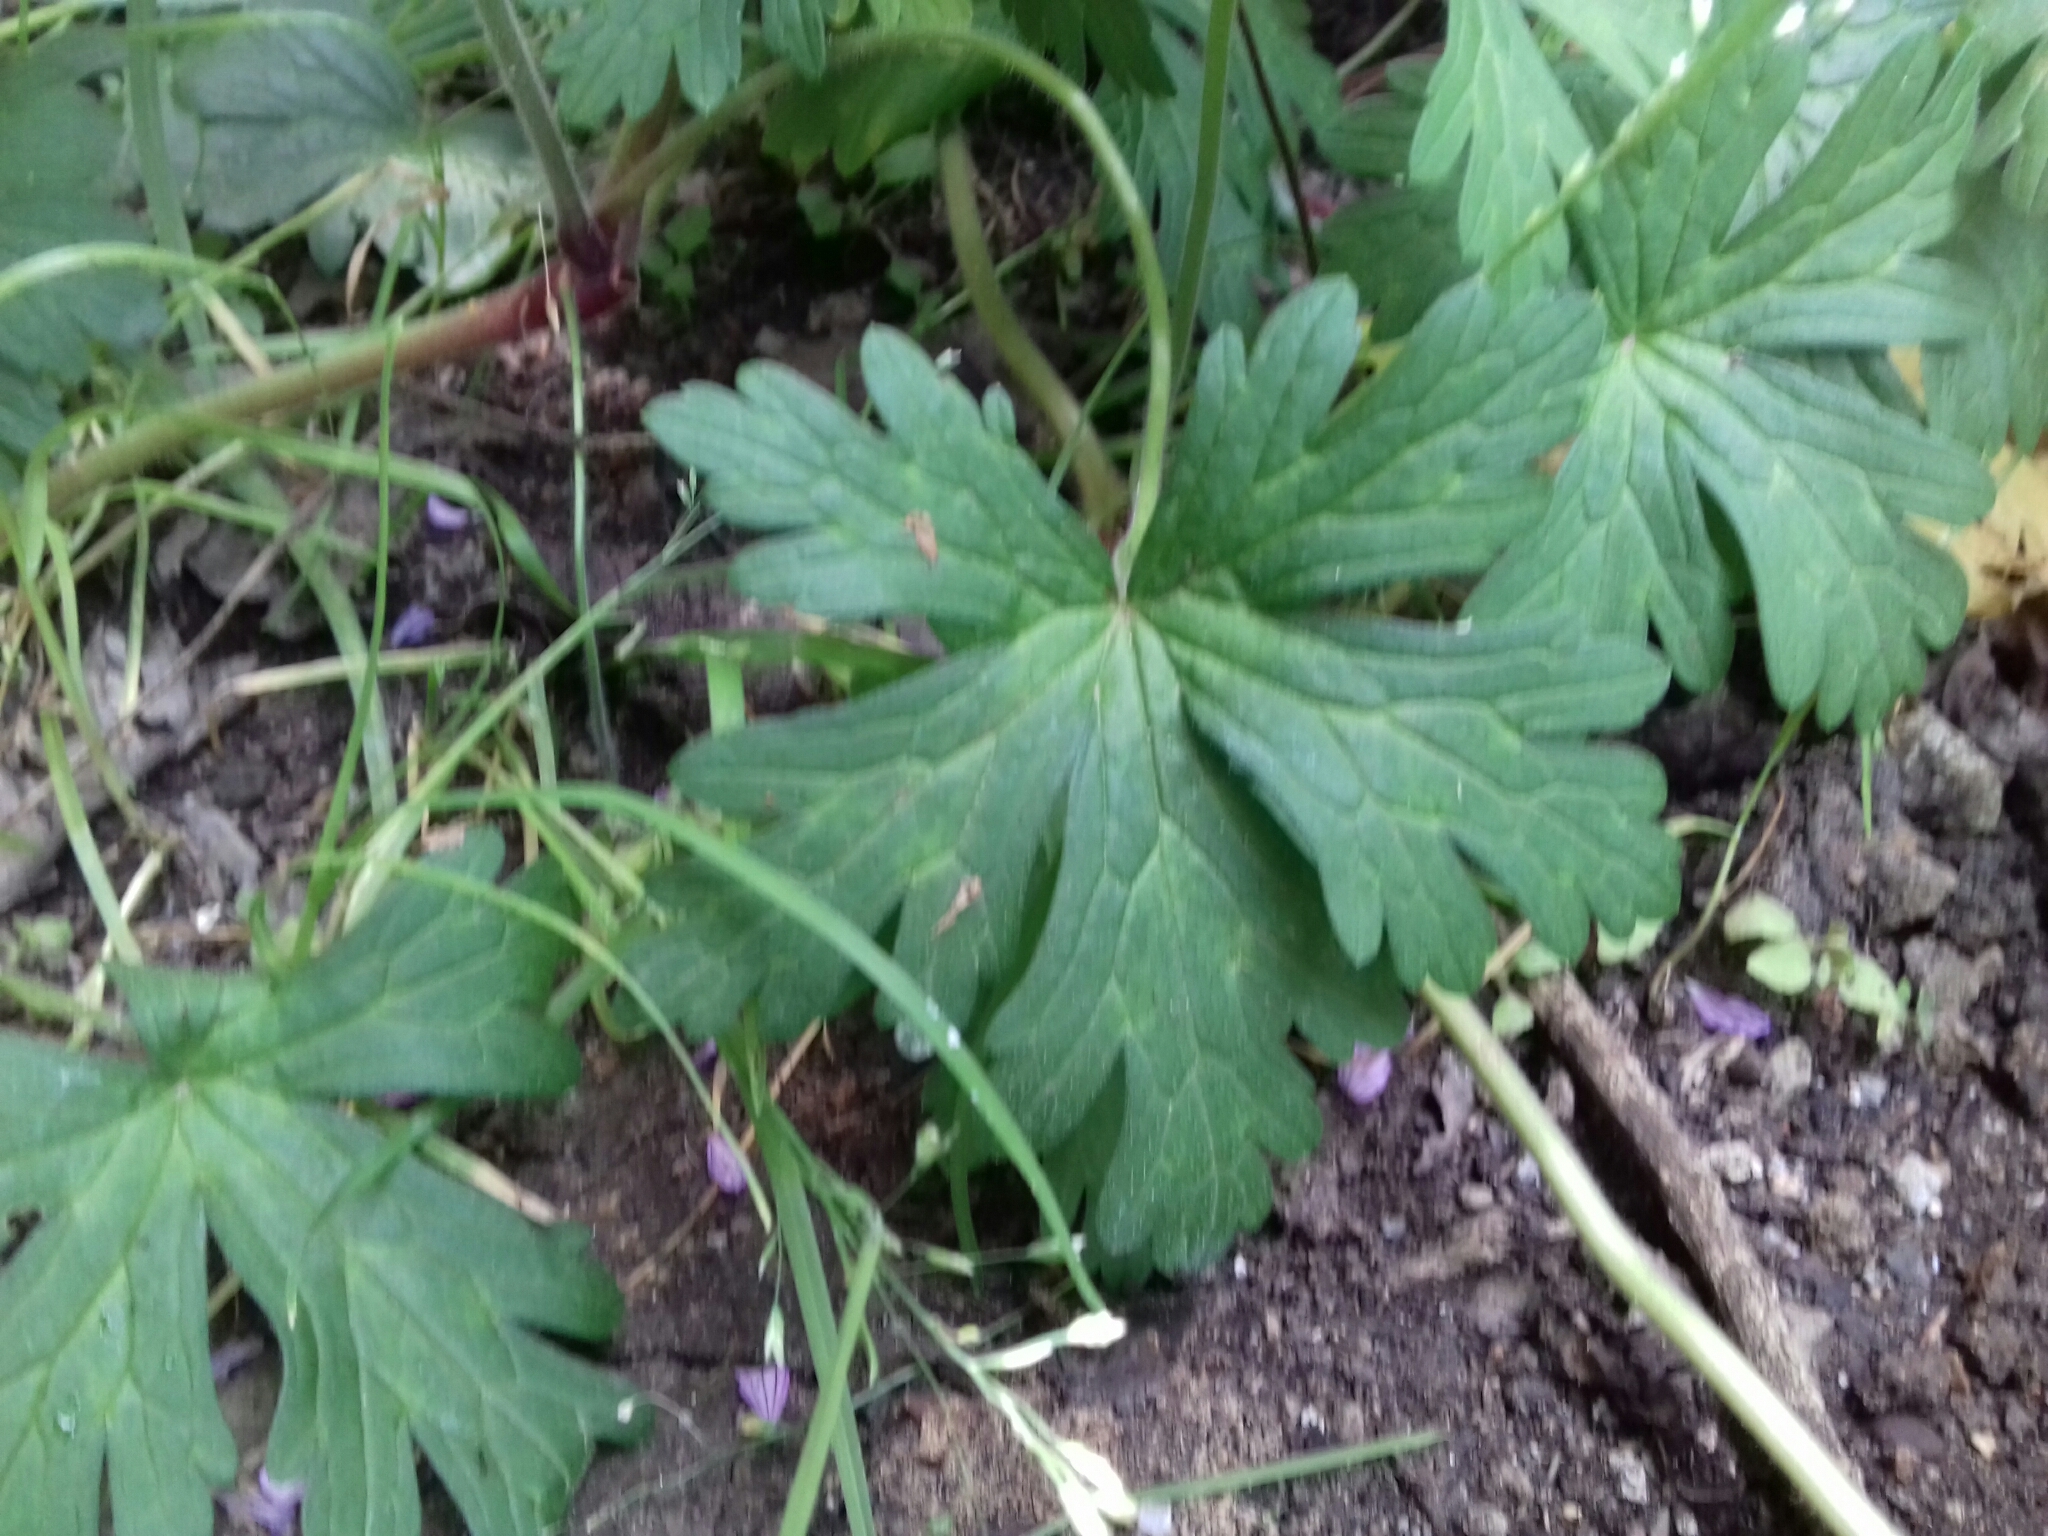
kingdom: Plantae
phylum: Tracheophyta
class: Magnoliopsida
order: Geraniales
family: Geraniaceae
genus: Geranium
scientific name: Geranium seemannii
